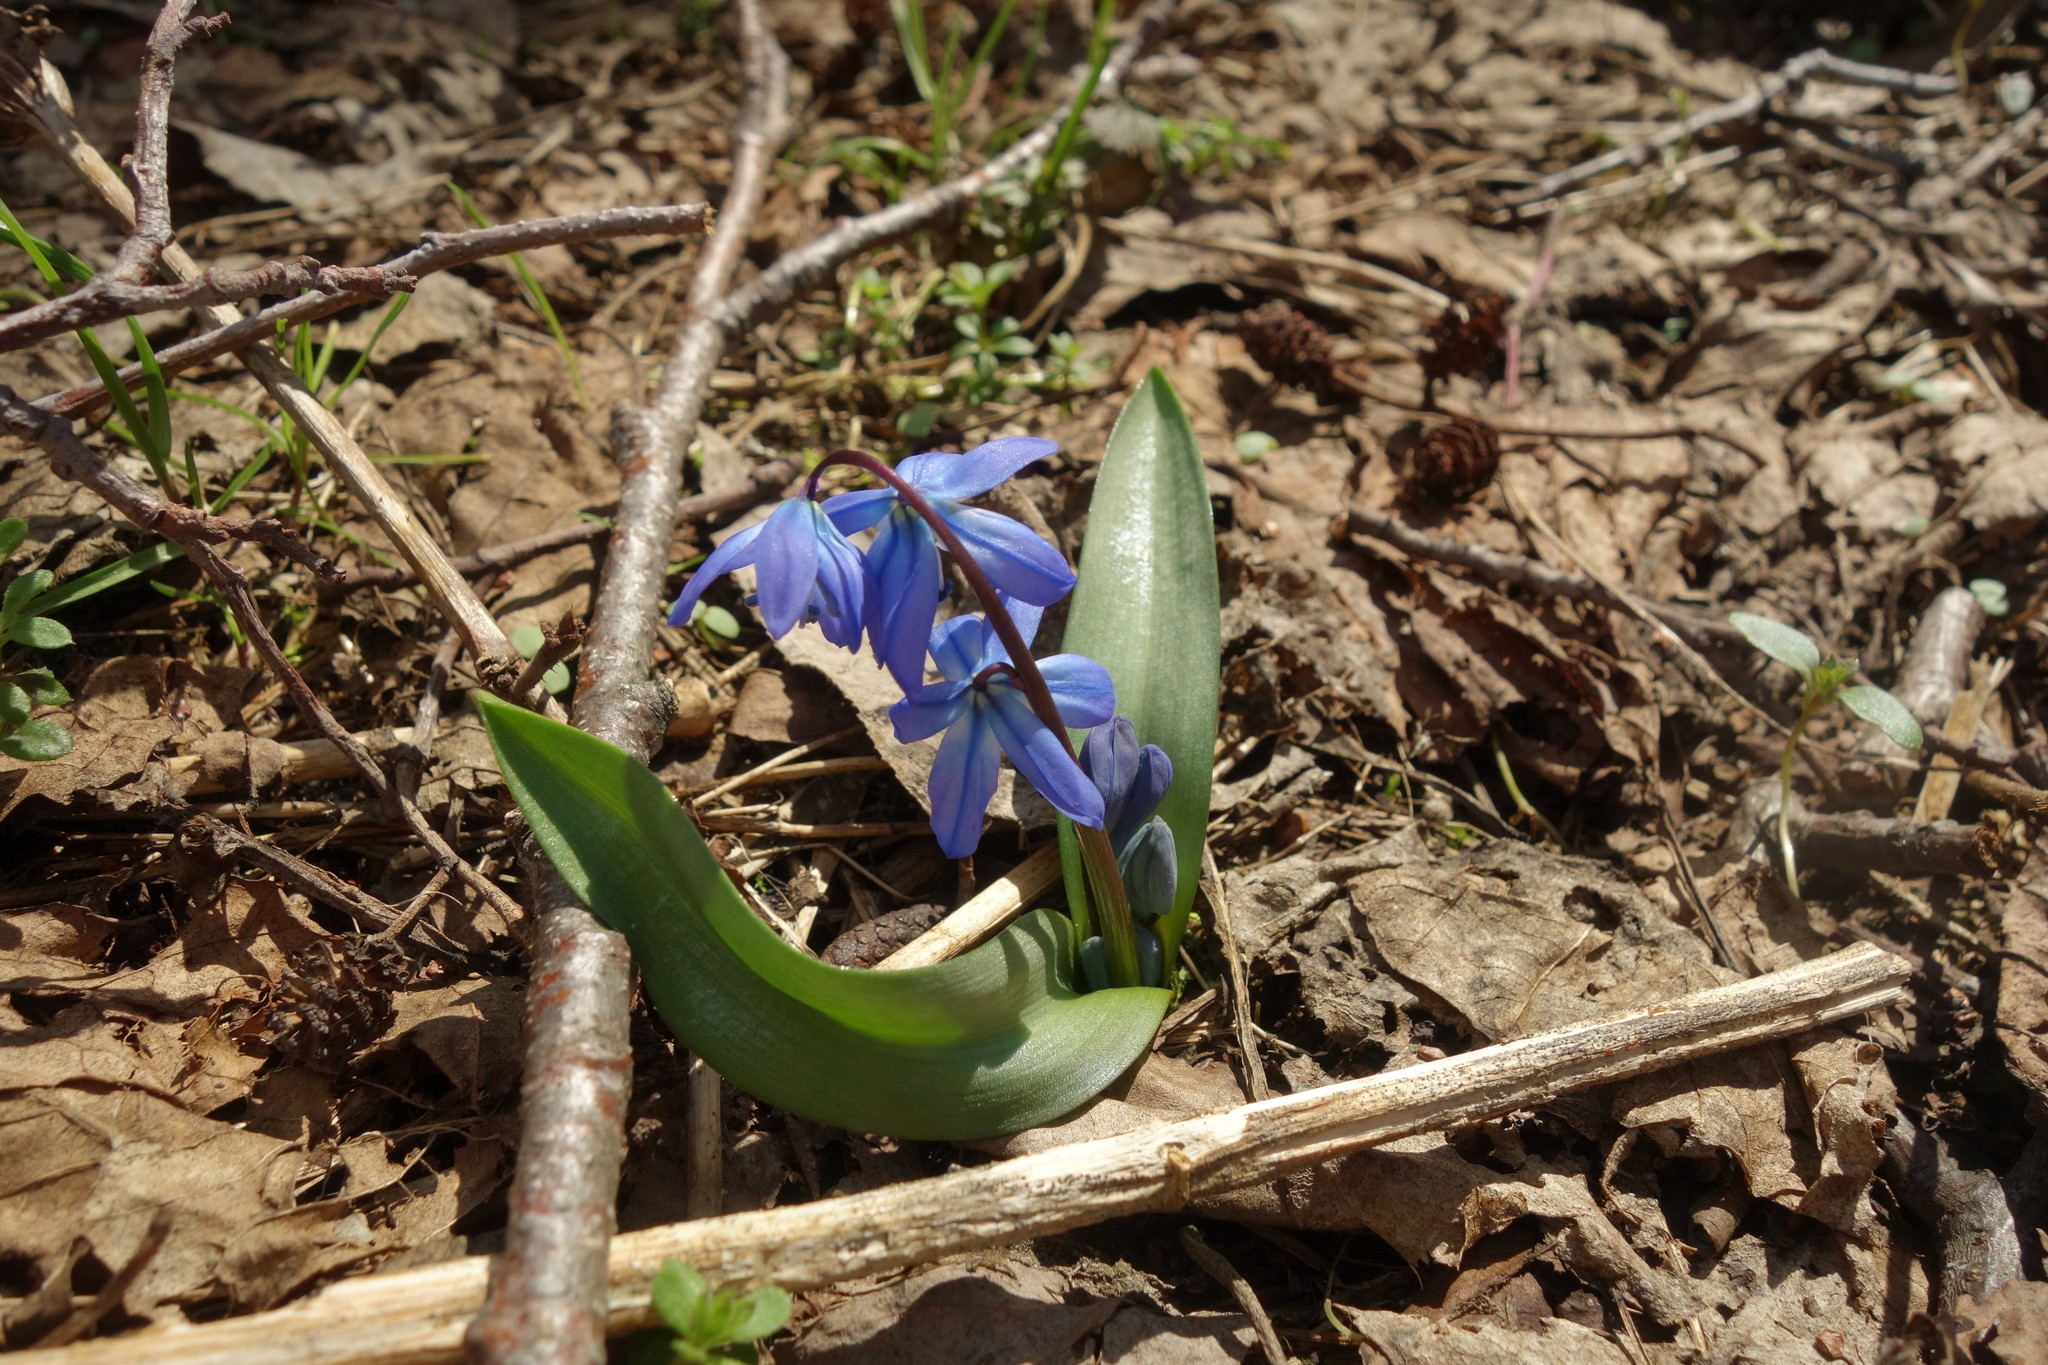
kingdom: Plantae
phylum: Tracheophyta
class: Liliopsida
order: Asparagales
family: Asparagaceae
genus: Scilla
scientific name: Scilla siberica
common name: Siberian squill
